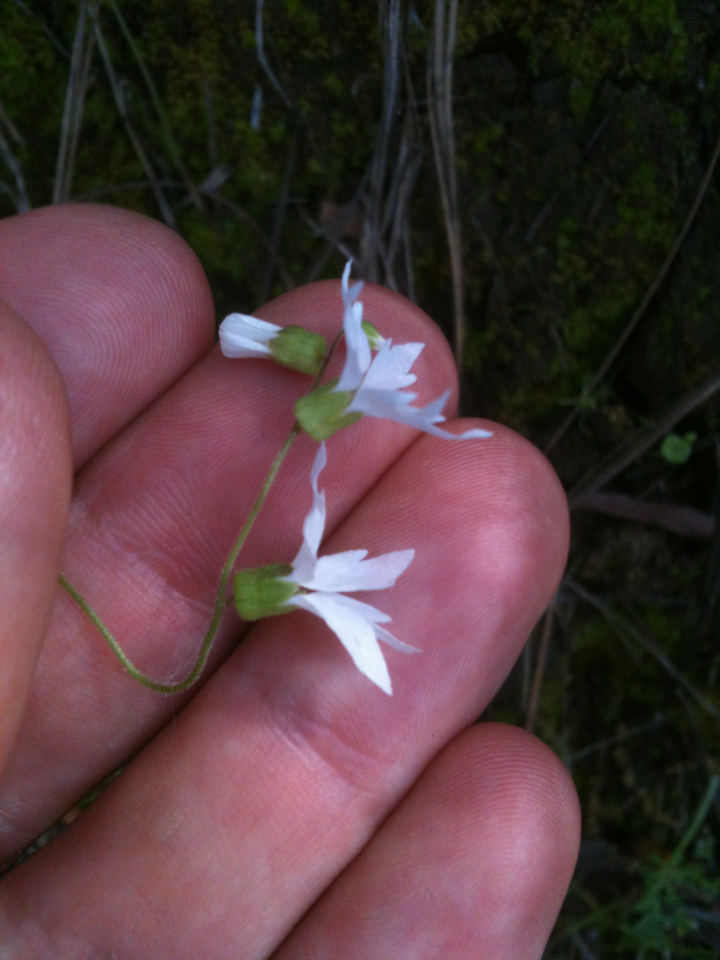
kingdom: Plantae
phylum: Tracheophyta
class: Magnoliopsida
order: Saxifragales
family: Saxifragaceae
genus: Lithophragma
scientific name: Lithophragma heterophyllum
